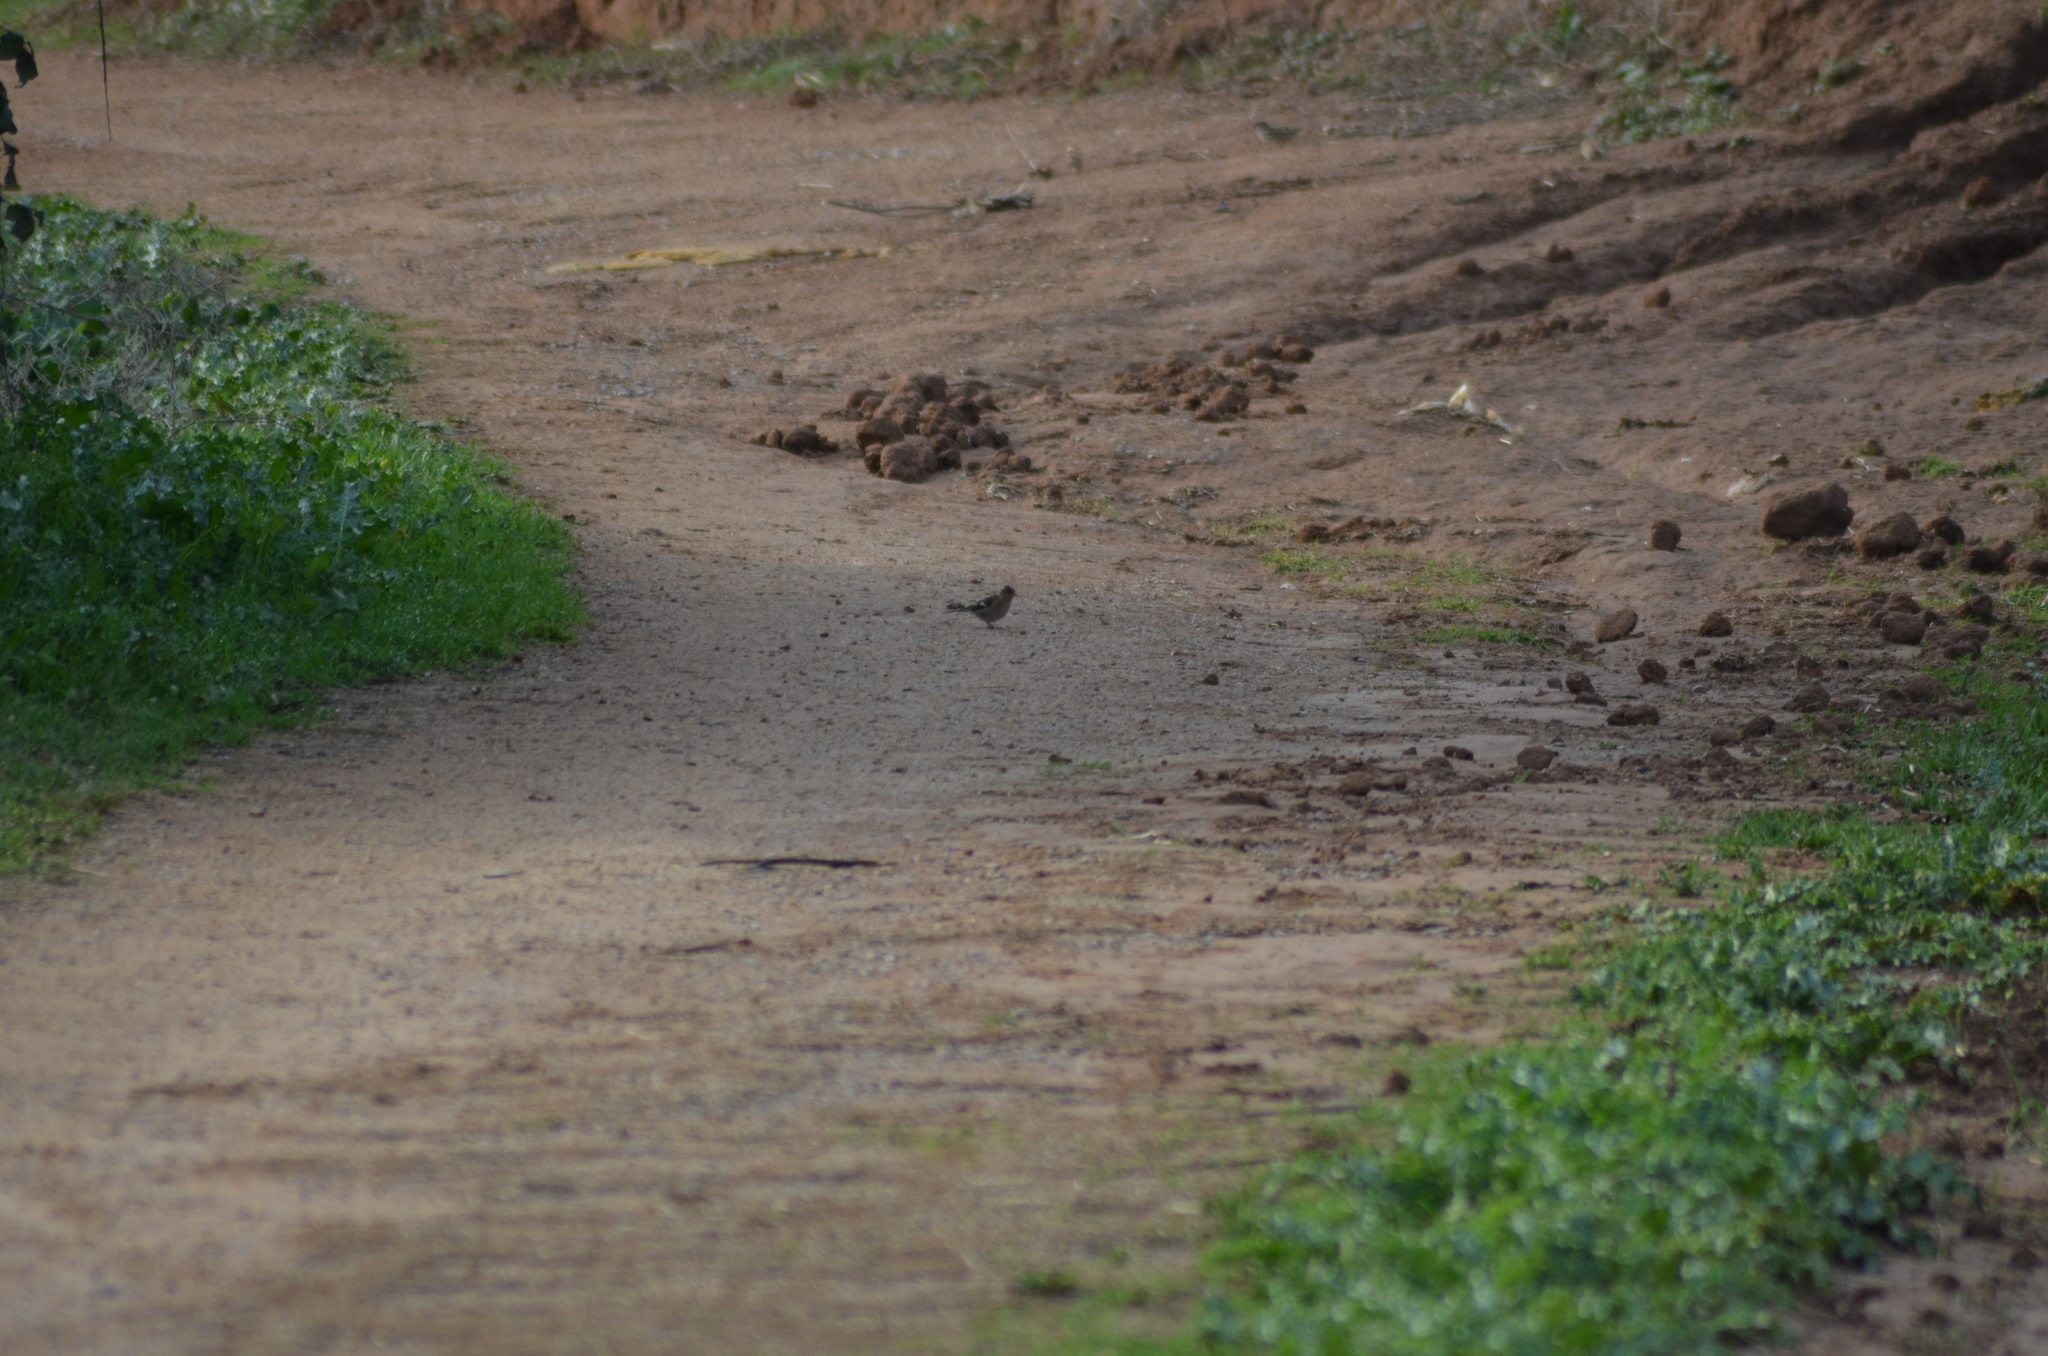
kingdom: Animalia
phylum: Chordata
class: Aves
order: Passeriformes
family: Fringillidae
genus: Fringilla
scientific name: Fringilla coelebs
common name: Common chaffinch
